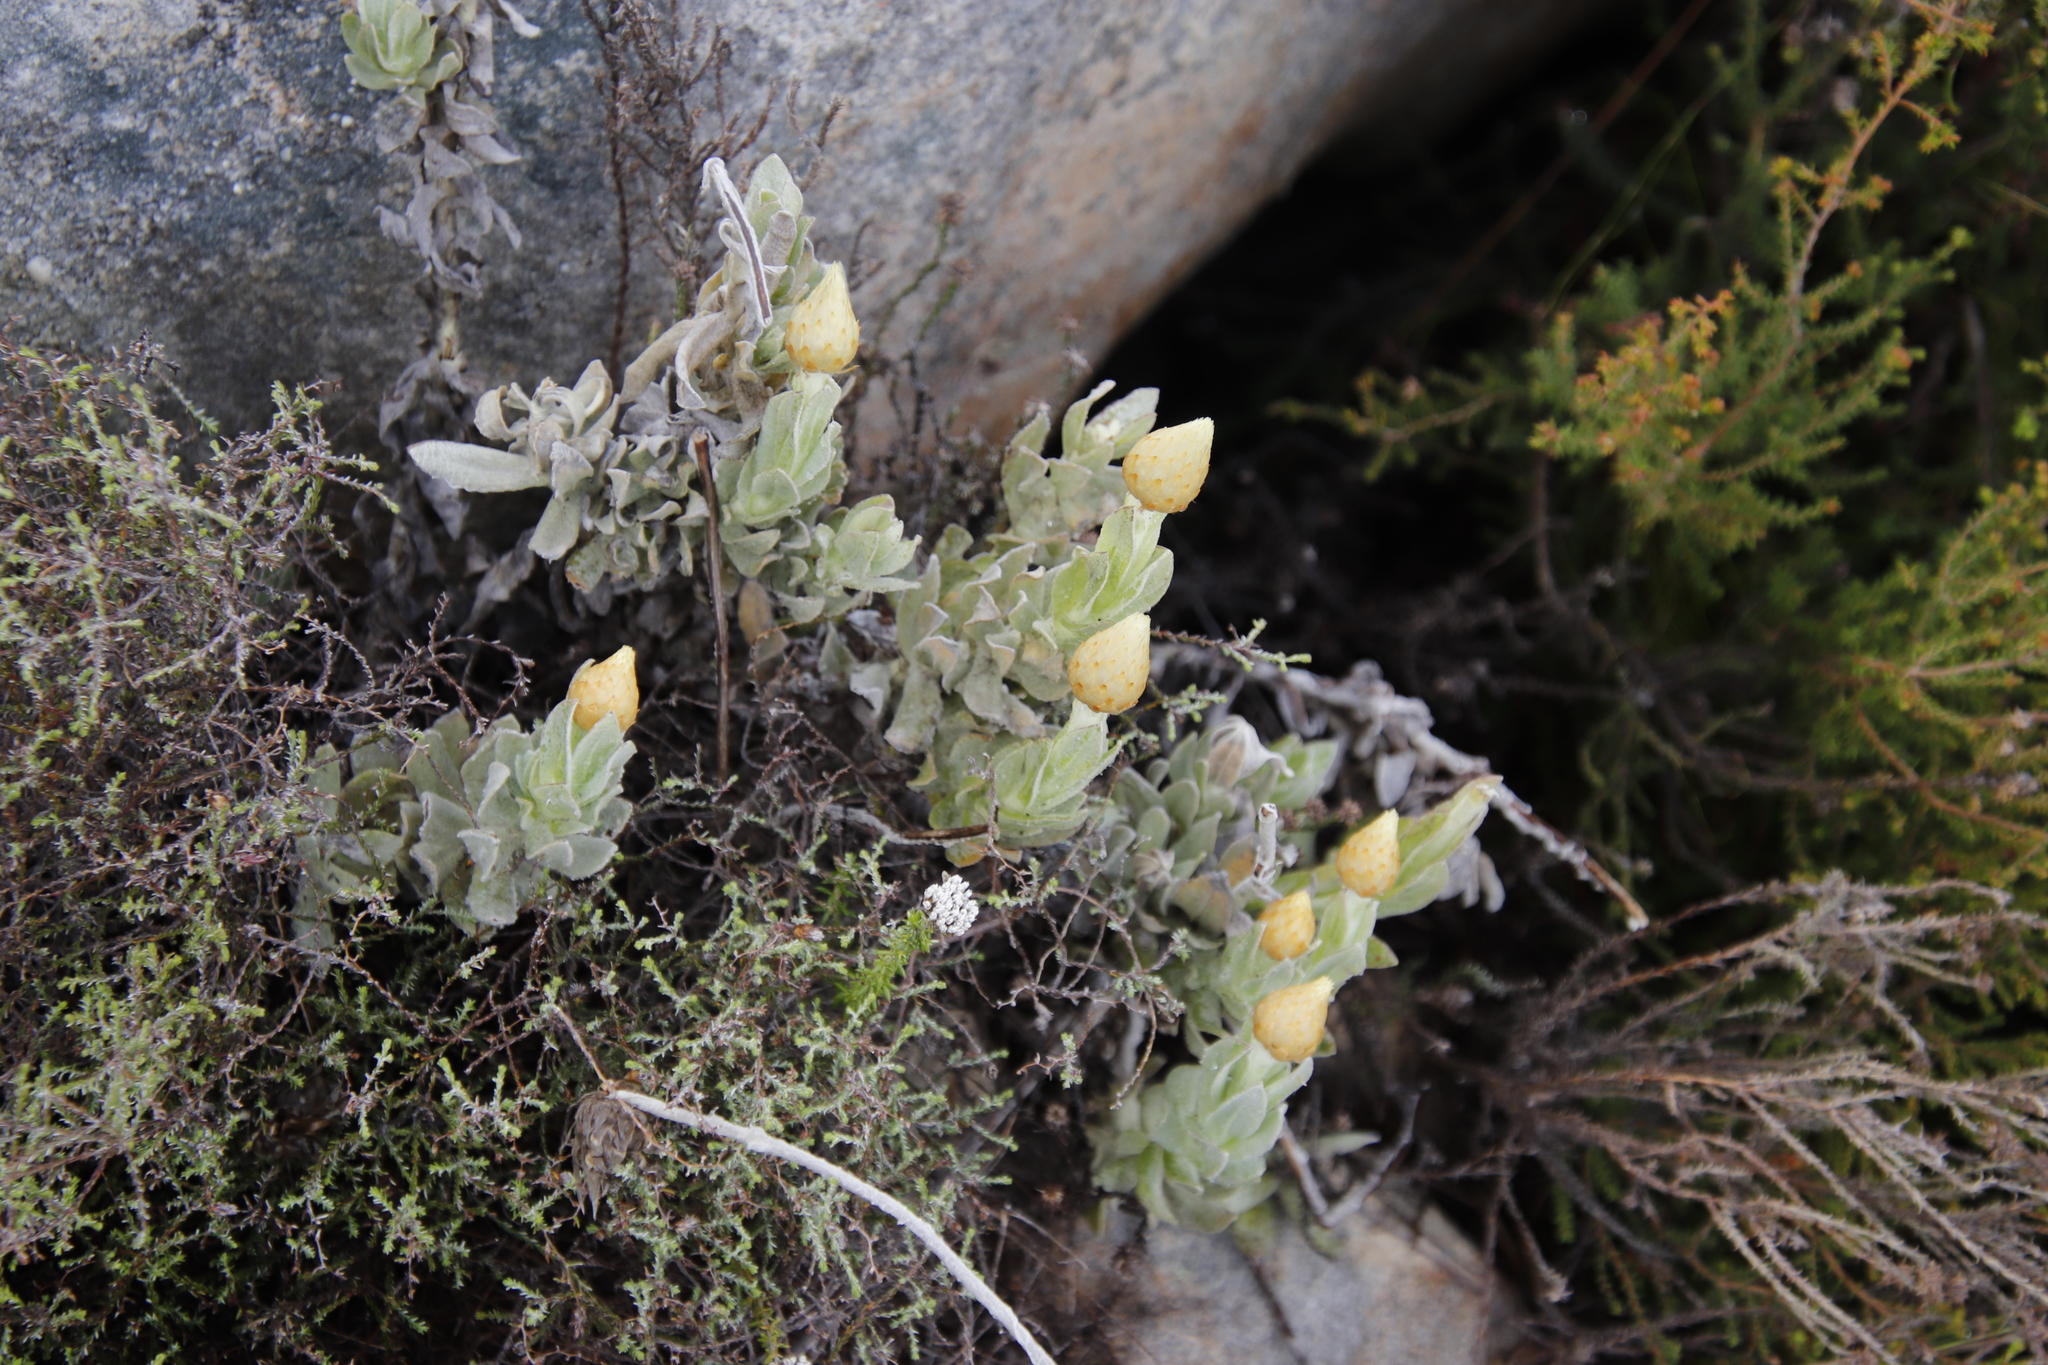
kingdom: Plantae
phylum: Tracheophyta
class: Magnoliopsida
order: Asterales
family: Asteraceae
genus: Syncarpha
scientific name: Syncarpha speciosissima
